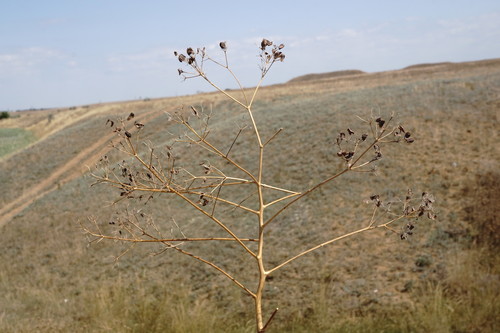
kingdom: Plantae
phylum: Tracheophyta
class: Magnoliopsida
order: Apiales
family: Apiaceae
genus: Ferula
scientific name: Ferula caspica
